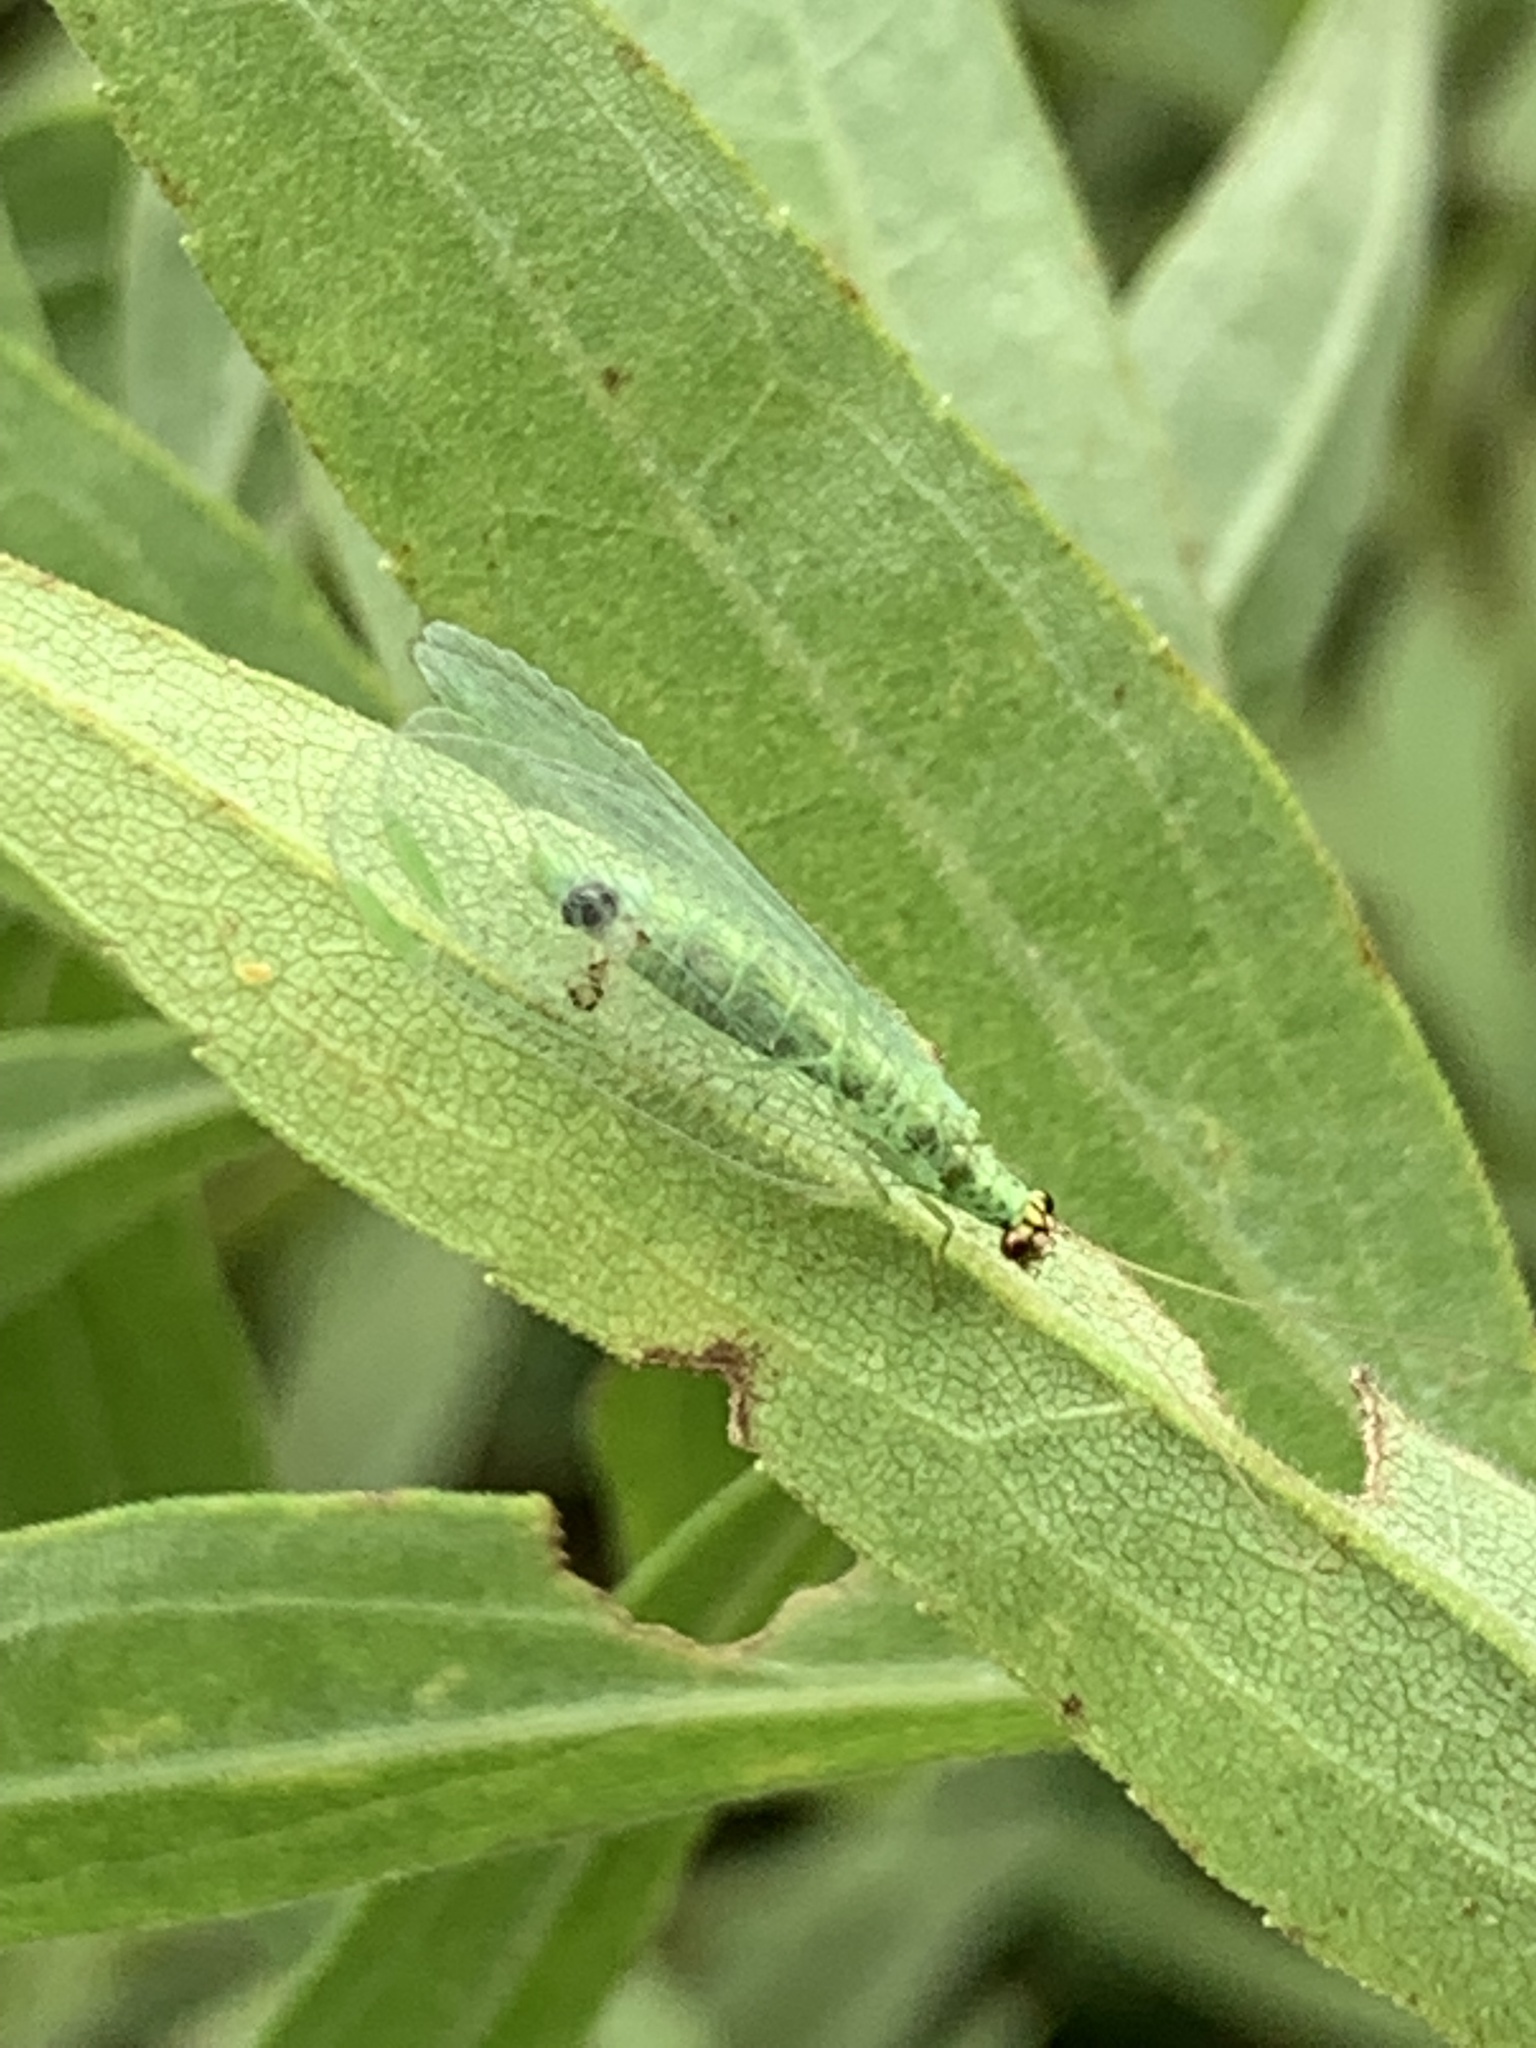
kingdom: Animalia
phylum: Arthropoda
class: Insecta
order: Neuroptera
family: Chrysopidae
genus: Chrysopa
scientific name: Chrysopa oculata
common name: Golden-eyed lacewing
